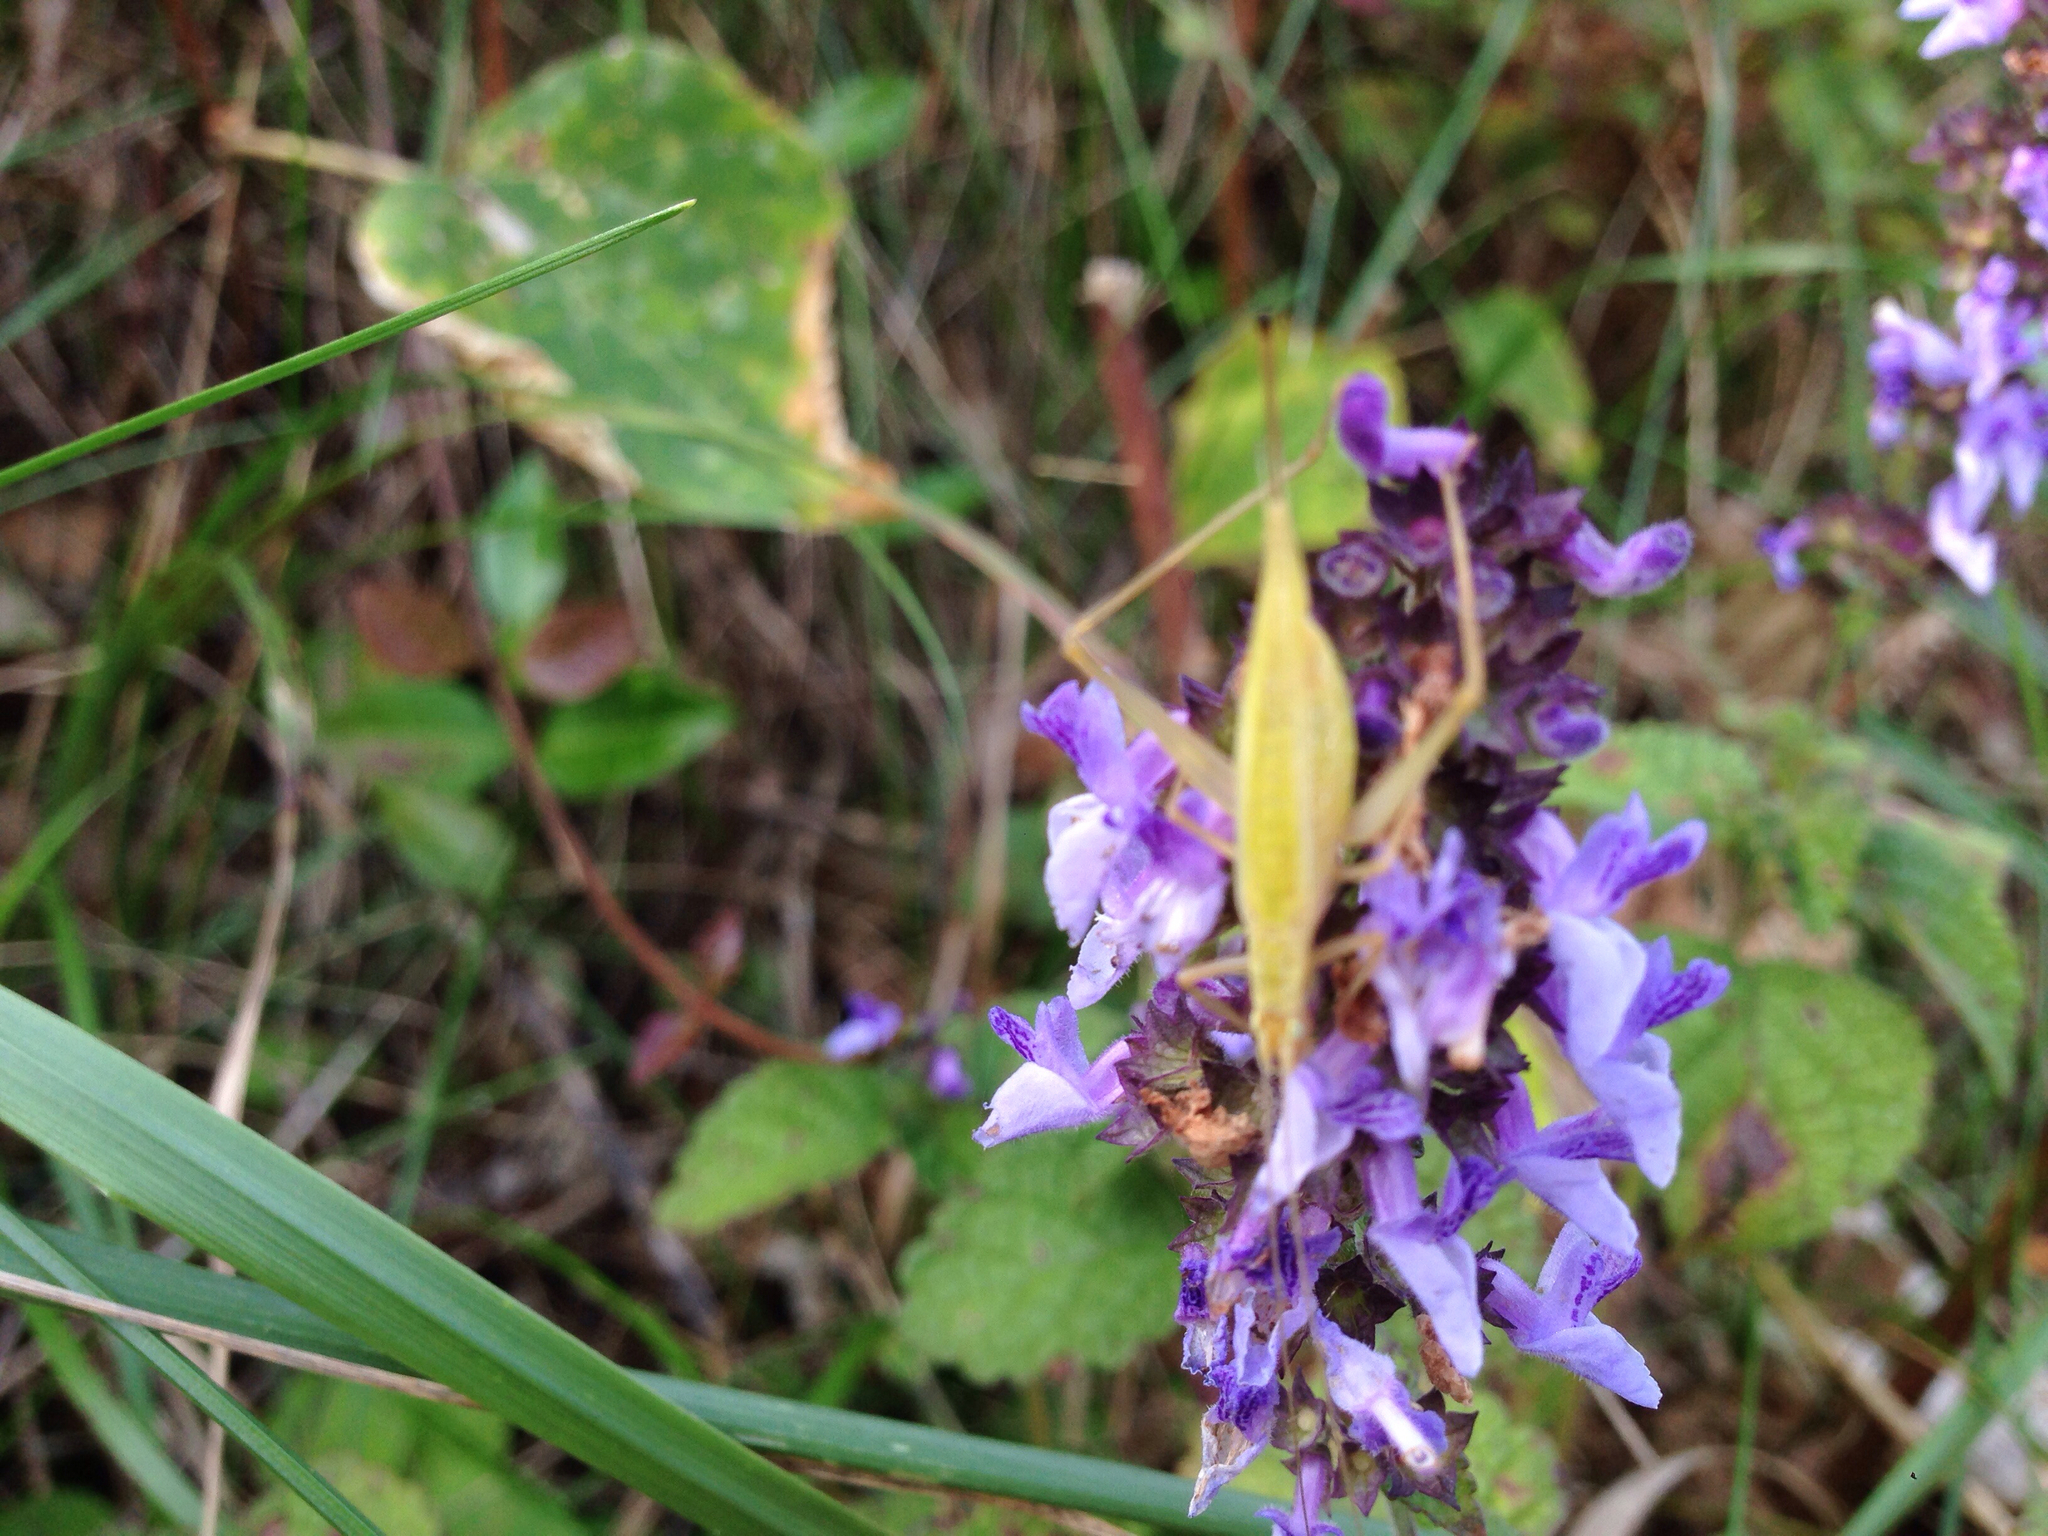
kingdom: Animalia
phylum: Arthropoda
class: Insecta
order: Orthoptera
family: Gryllidae
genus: Oecanthus
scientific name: Oecanthus longicauda
